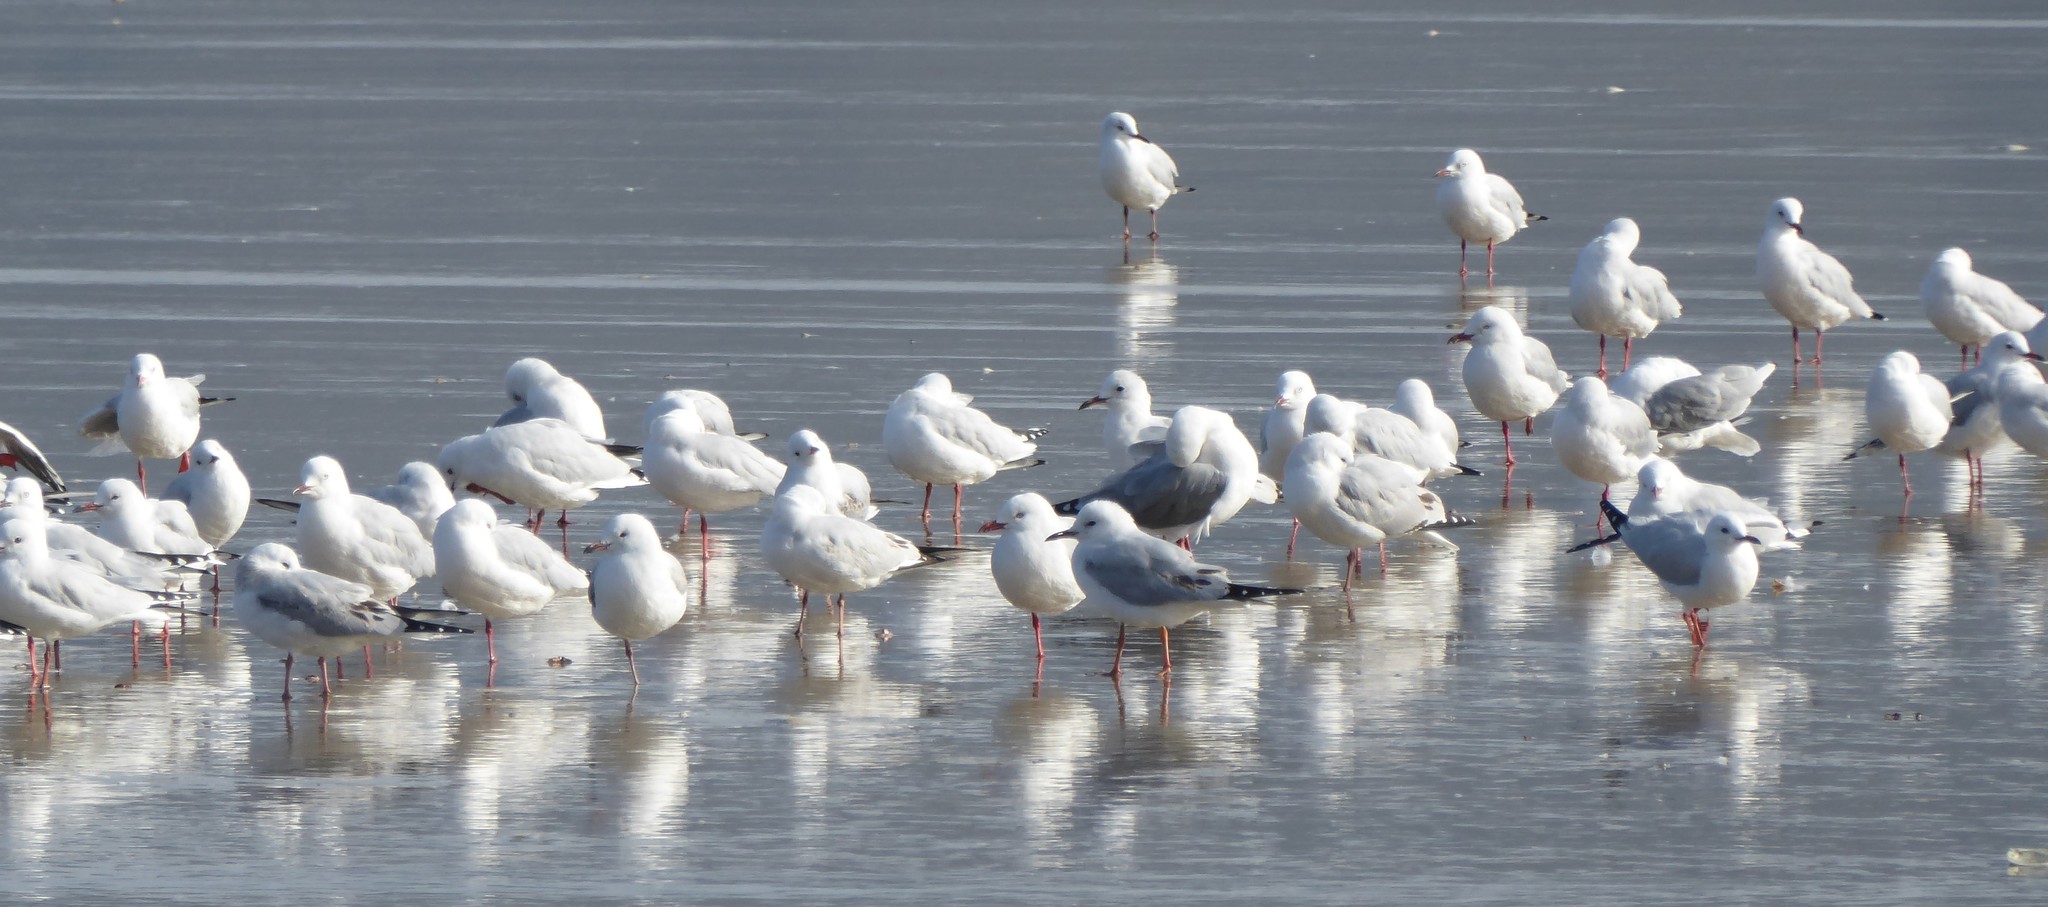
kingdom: Animalia
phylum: Chordata
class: Aves
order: Charadriiformes
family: Laridae
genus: Chroicocephalus
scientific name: Chroicocephalus bulleri
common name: Black-billed gull
